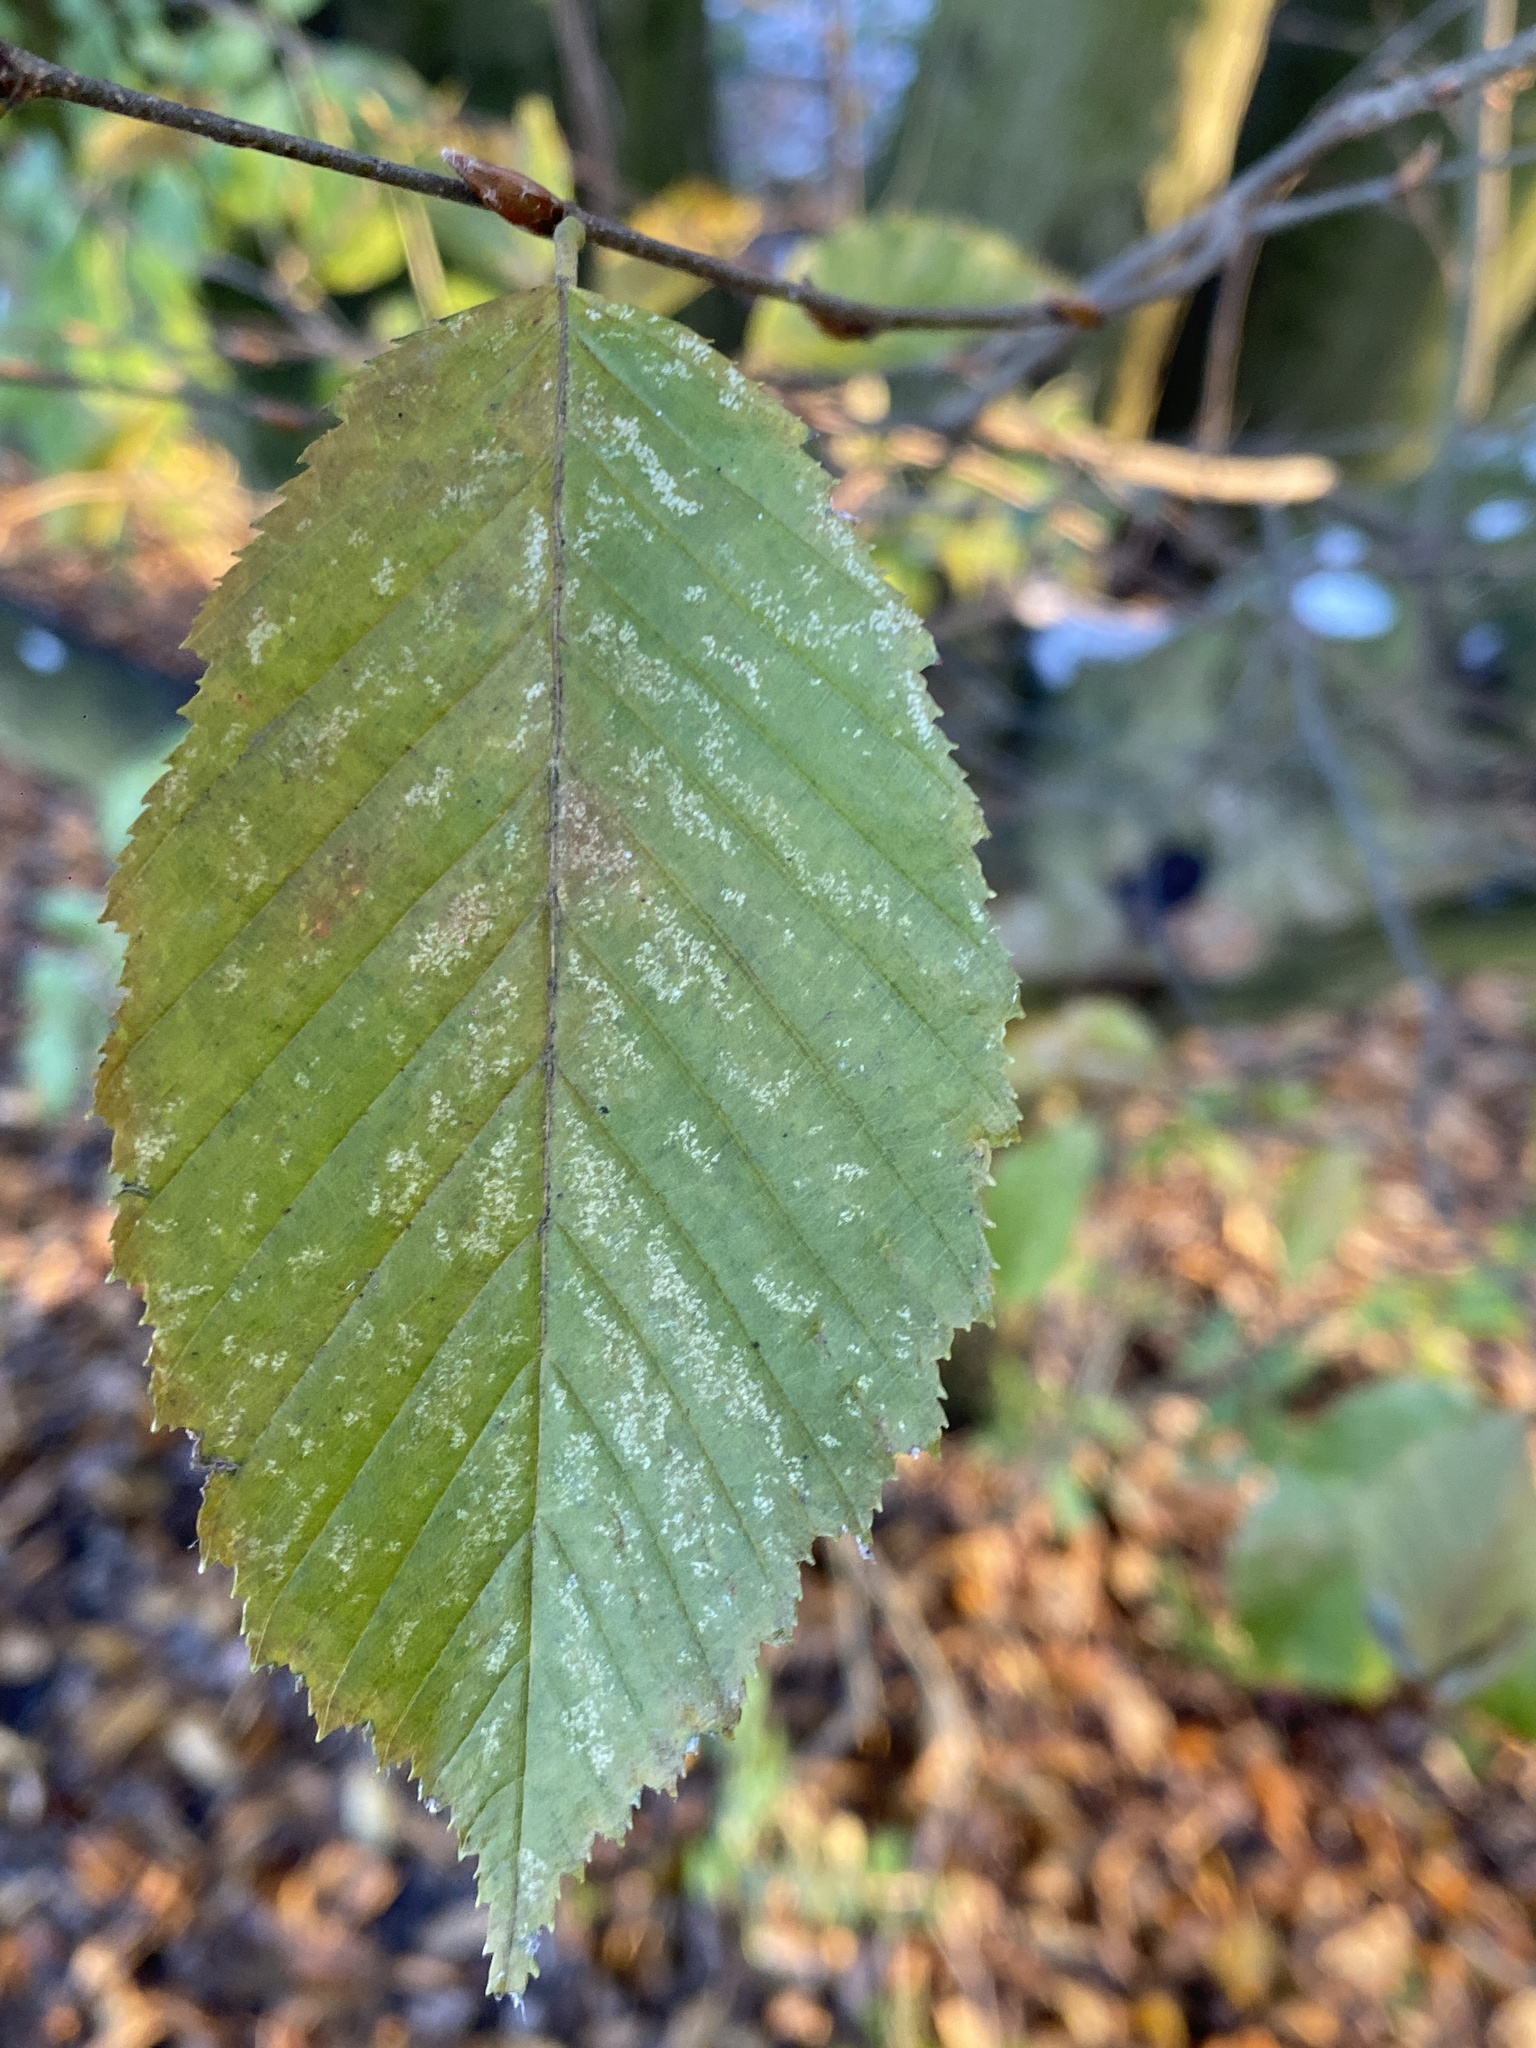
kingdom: Plantae
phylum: Tracheophyta
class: Magnoliopsida
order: Fagales
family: Betulaceae
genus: Carpinus
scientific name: Carpinus betulus
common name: Hornbeam
